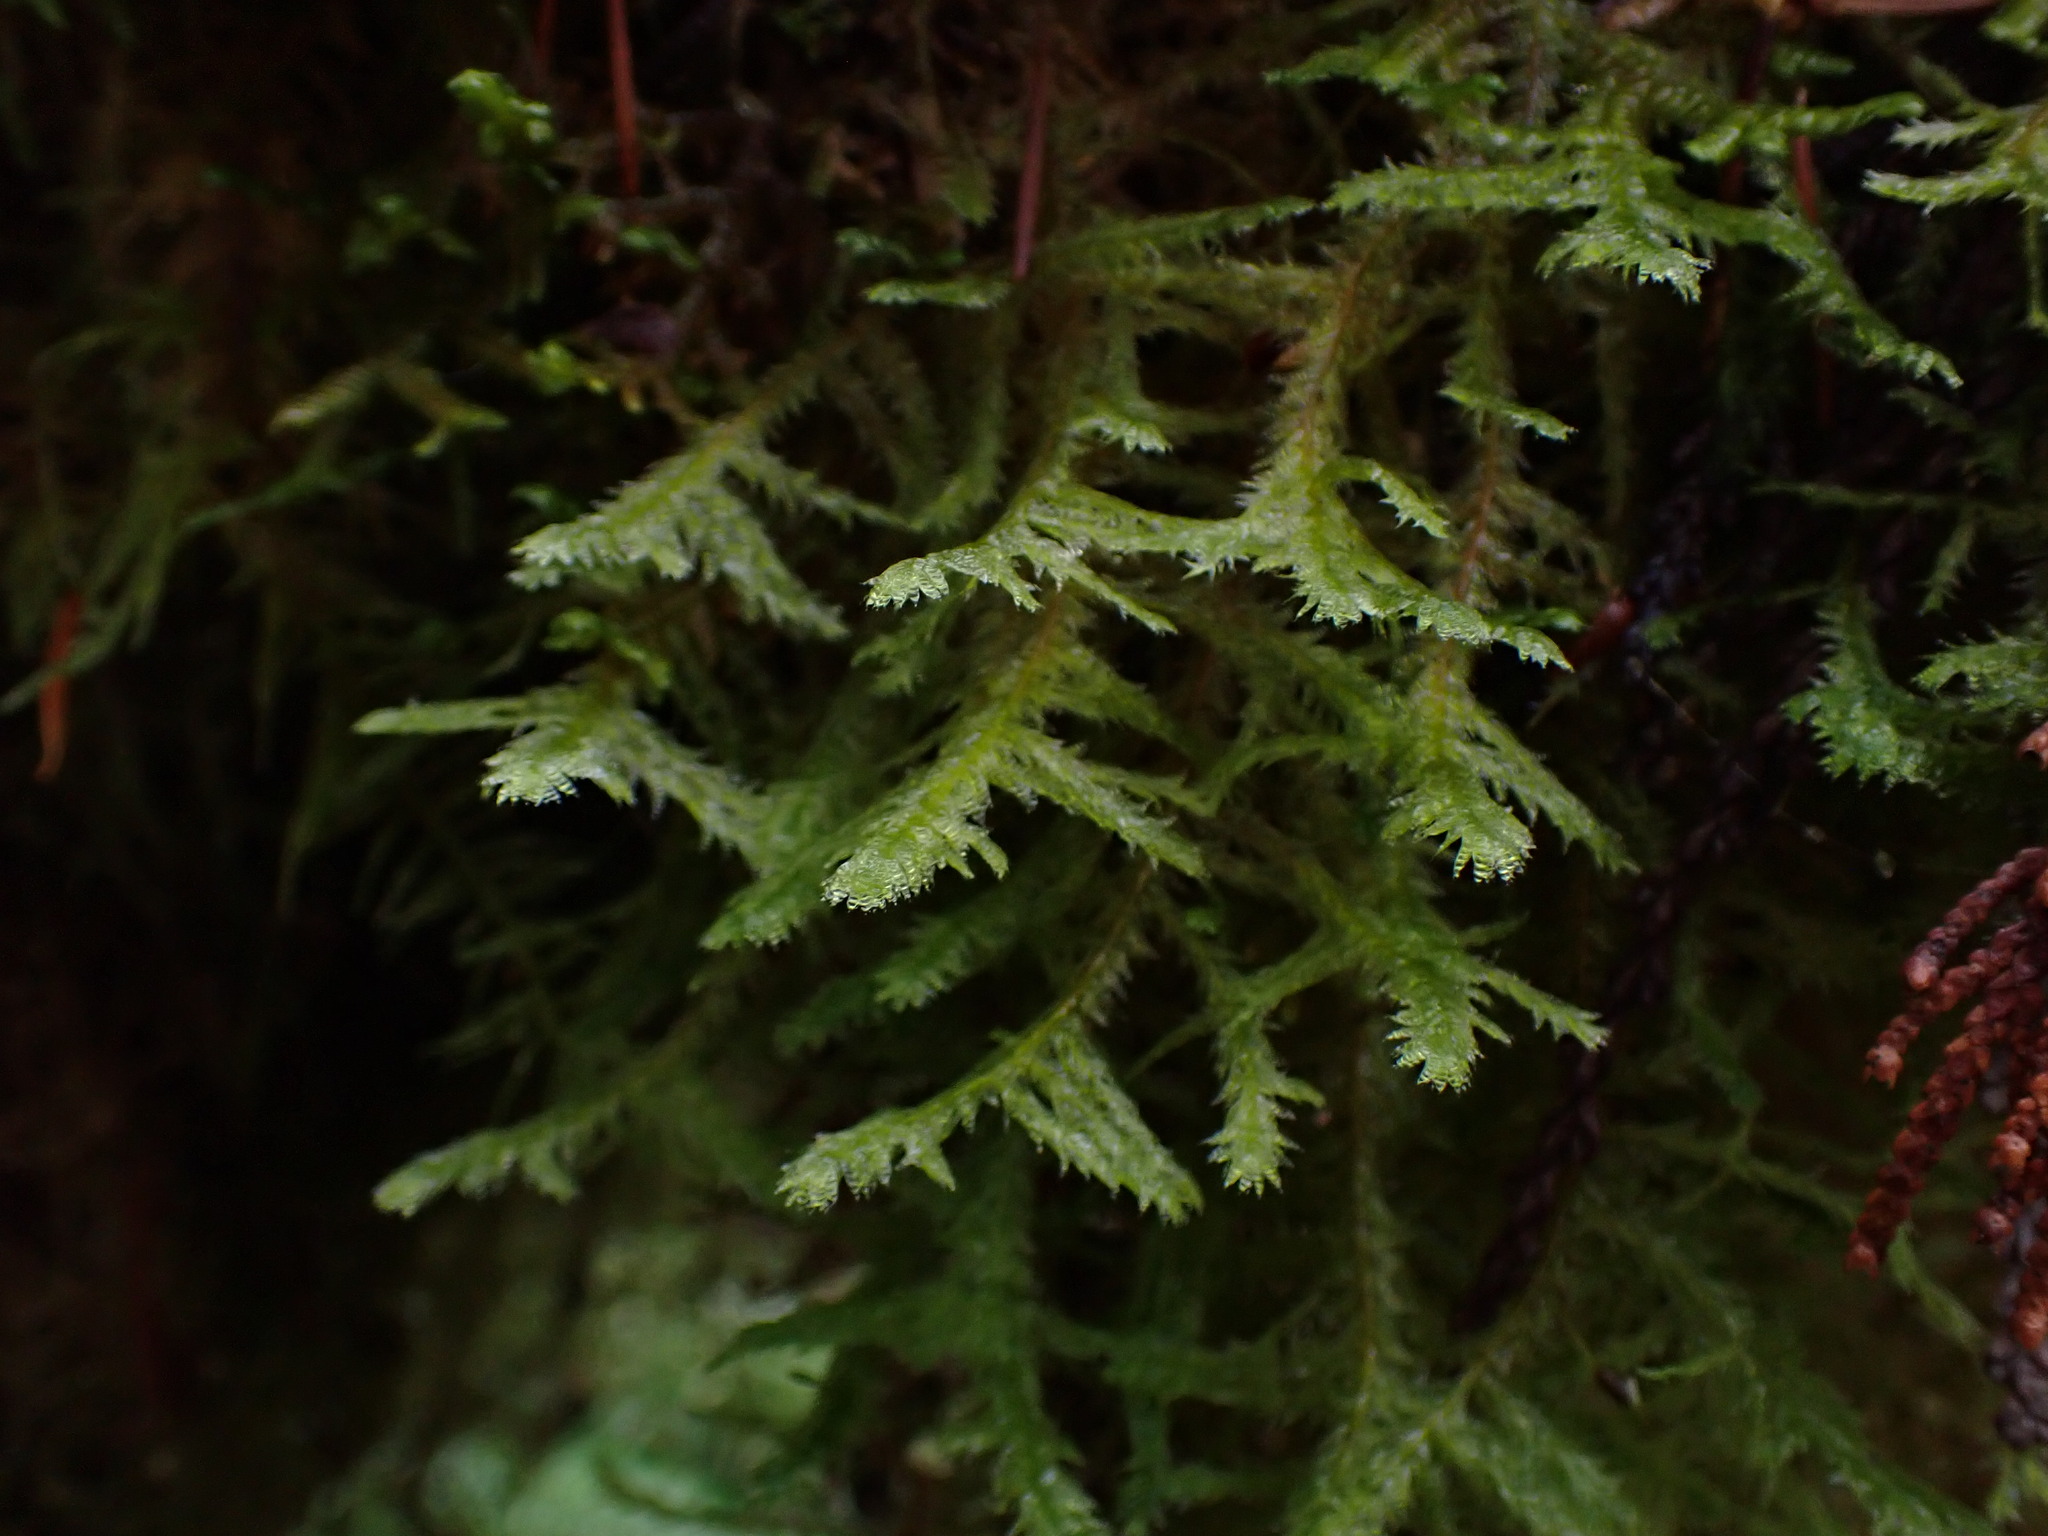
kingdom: Plantae
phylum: Bryophyta
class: Bryopsida
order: Hypnales
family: Neckeraceae
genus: Neckera
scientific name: Neckera douglasii
